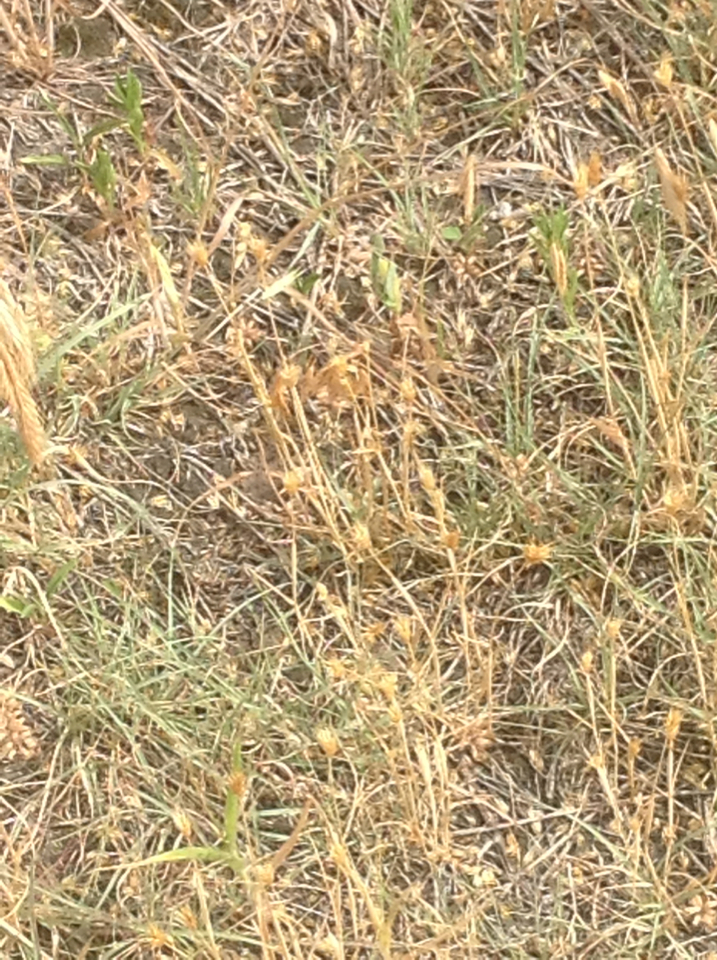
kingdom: Plantae
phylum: Tracheophyta
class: Liliopsida
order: Poales
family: Poaceae
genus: Bouteloua
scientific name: Bouteloua dactyloides
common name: Buffalo grass
